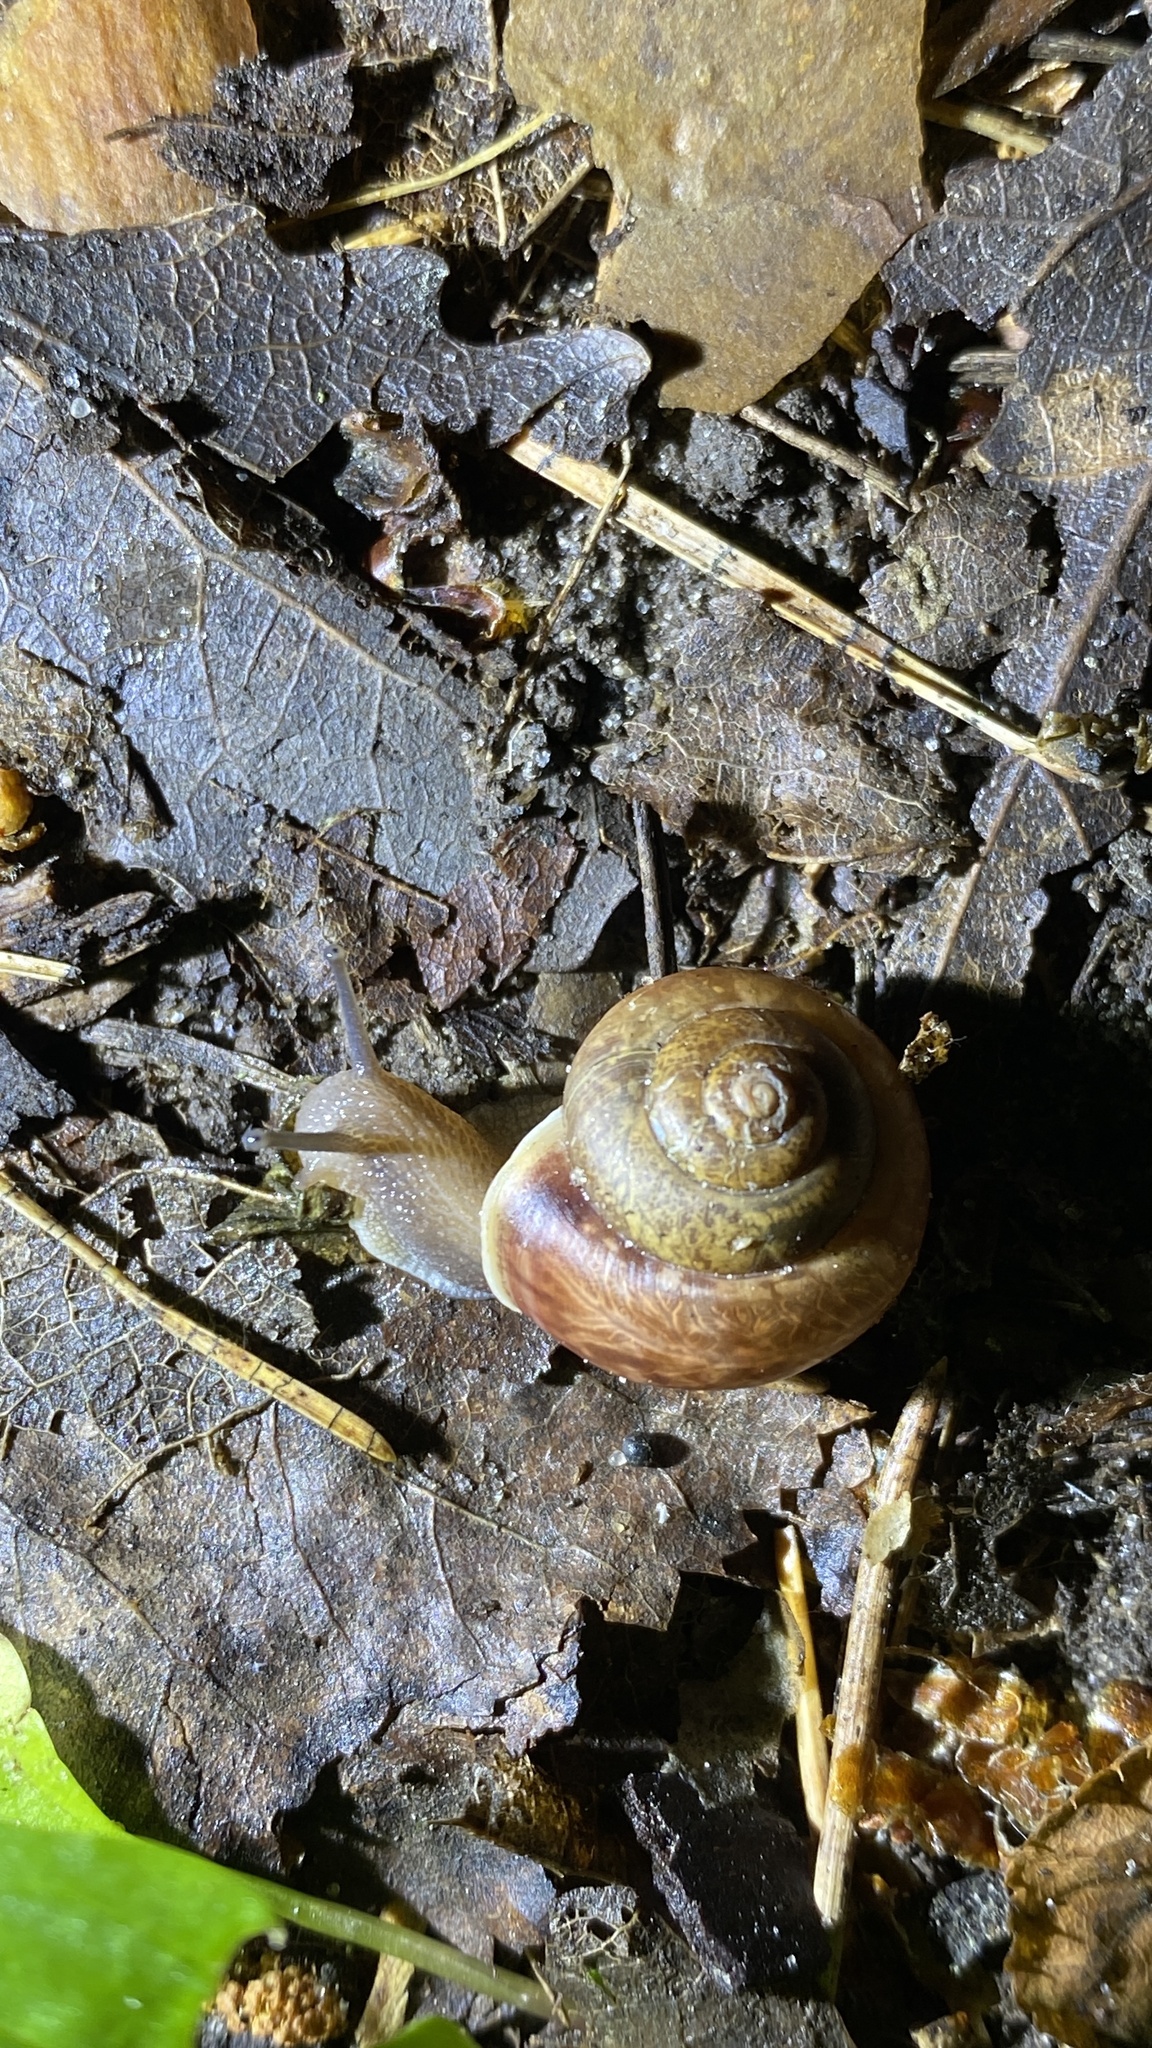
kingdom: Animalia
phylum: Mollusca
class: Gastropoda
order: Stylommatophora
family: Camaenidae
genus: Fruticicola
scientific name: Fruticicola fruticum
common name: Bush snail
